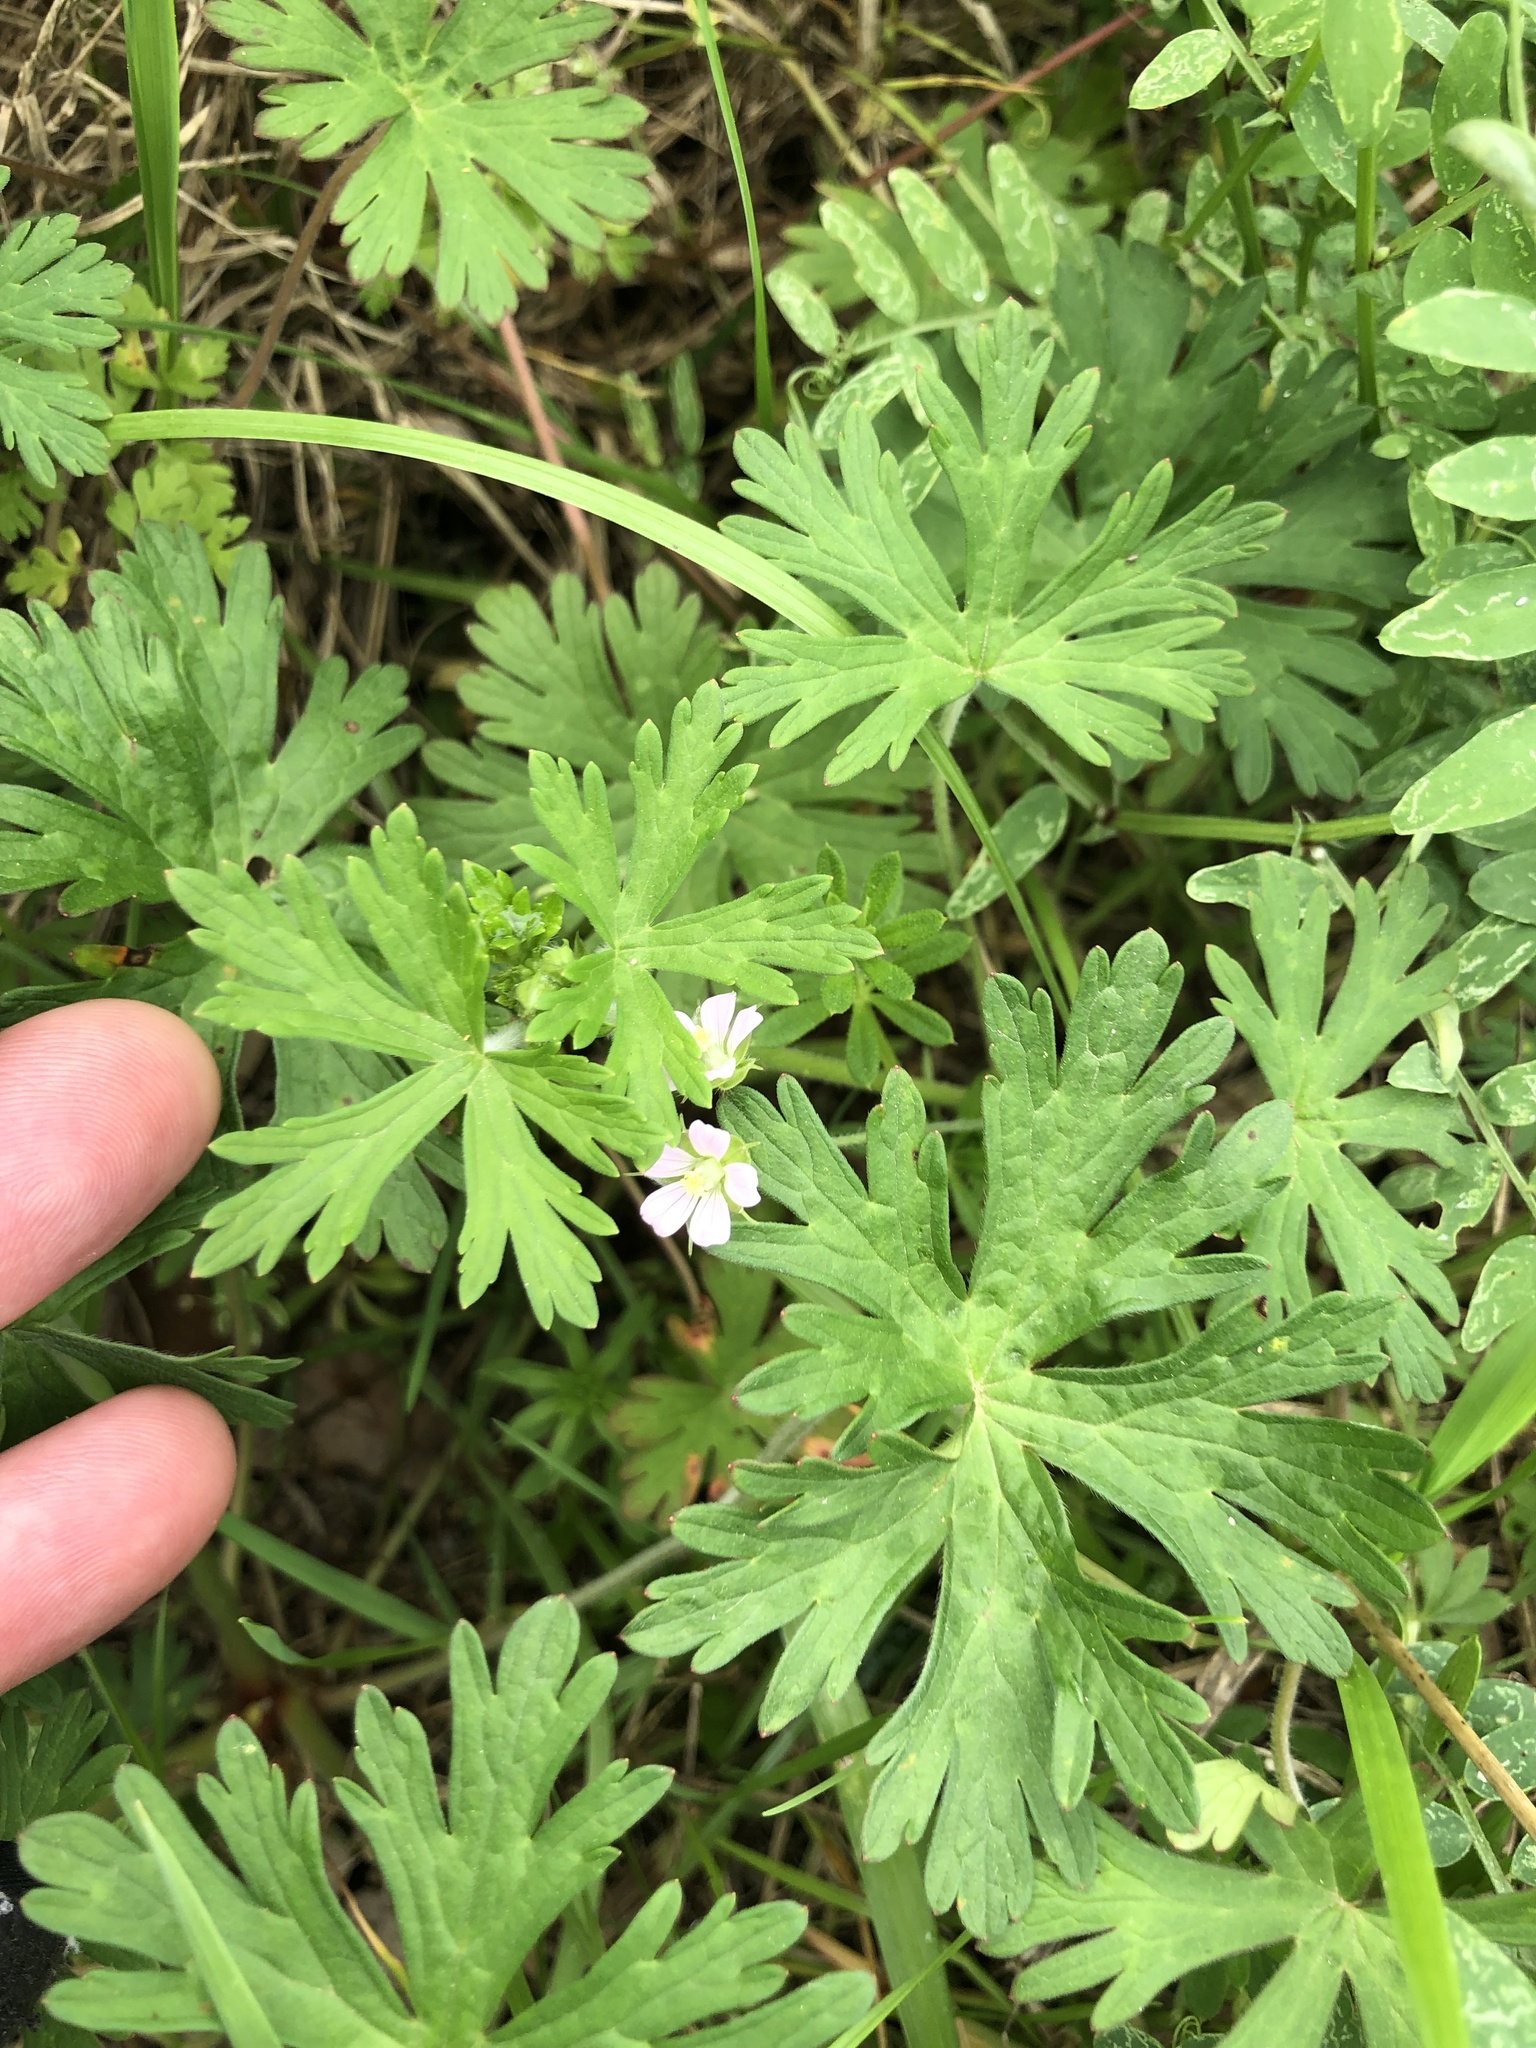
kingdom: Plantae
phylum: Tracheophyta
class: Magnoliopsida
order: Geraniales
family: Geraniaceae
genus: Geranium
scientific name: Geranium carolinianum
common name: Carolina crane's-bill
